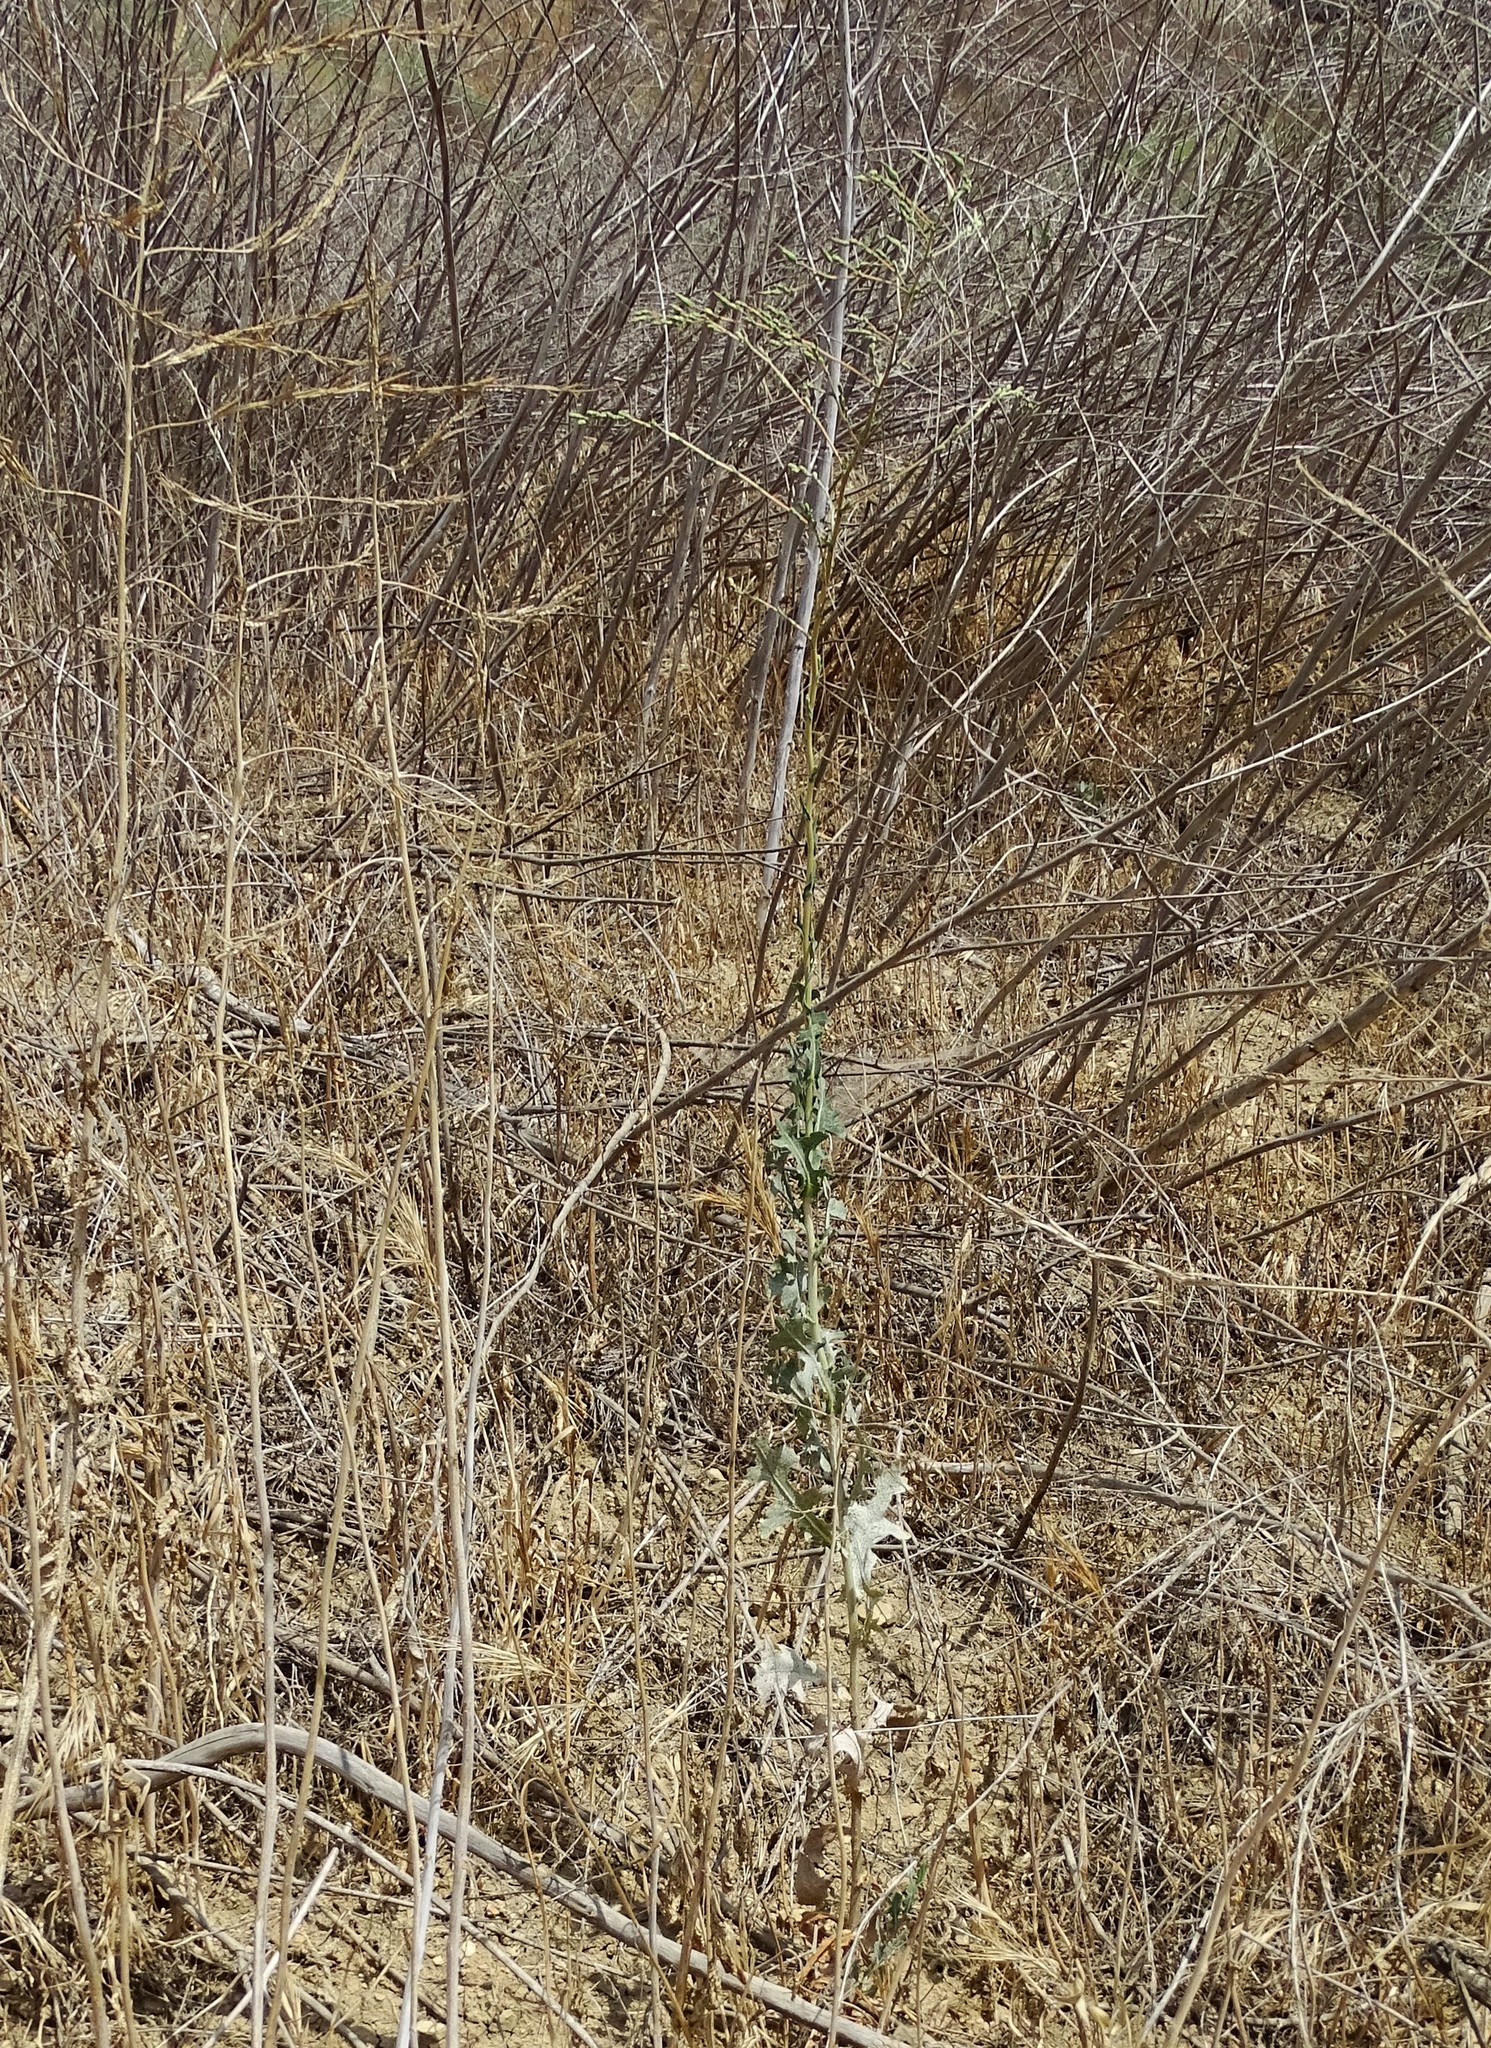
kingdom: Plantae
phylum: Tracheophyta
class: Magnoliopsida
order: Asterales
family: Asteraceae
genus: Lactuca
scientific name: Lactuca serriola
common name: Prickly lettuce
